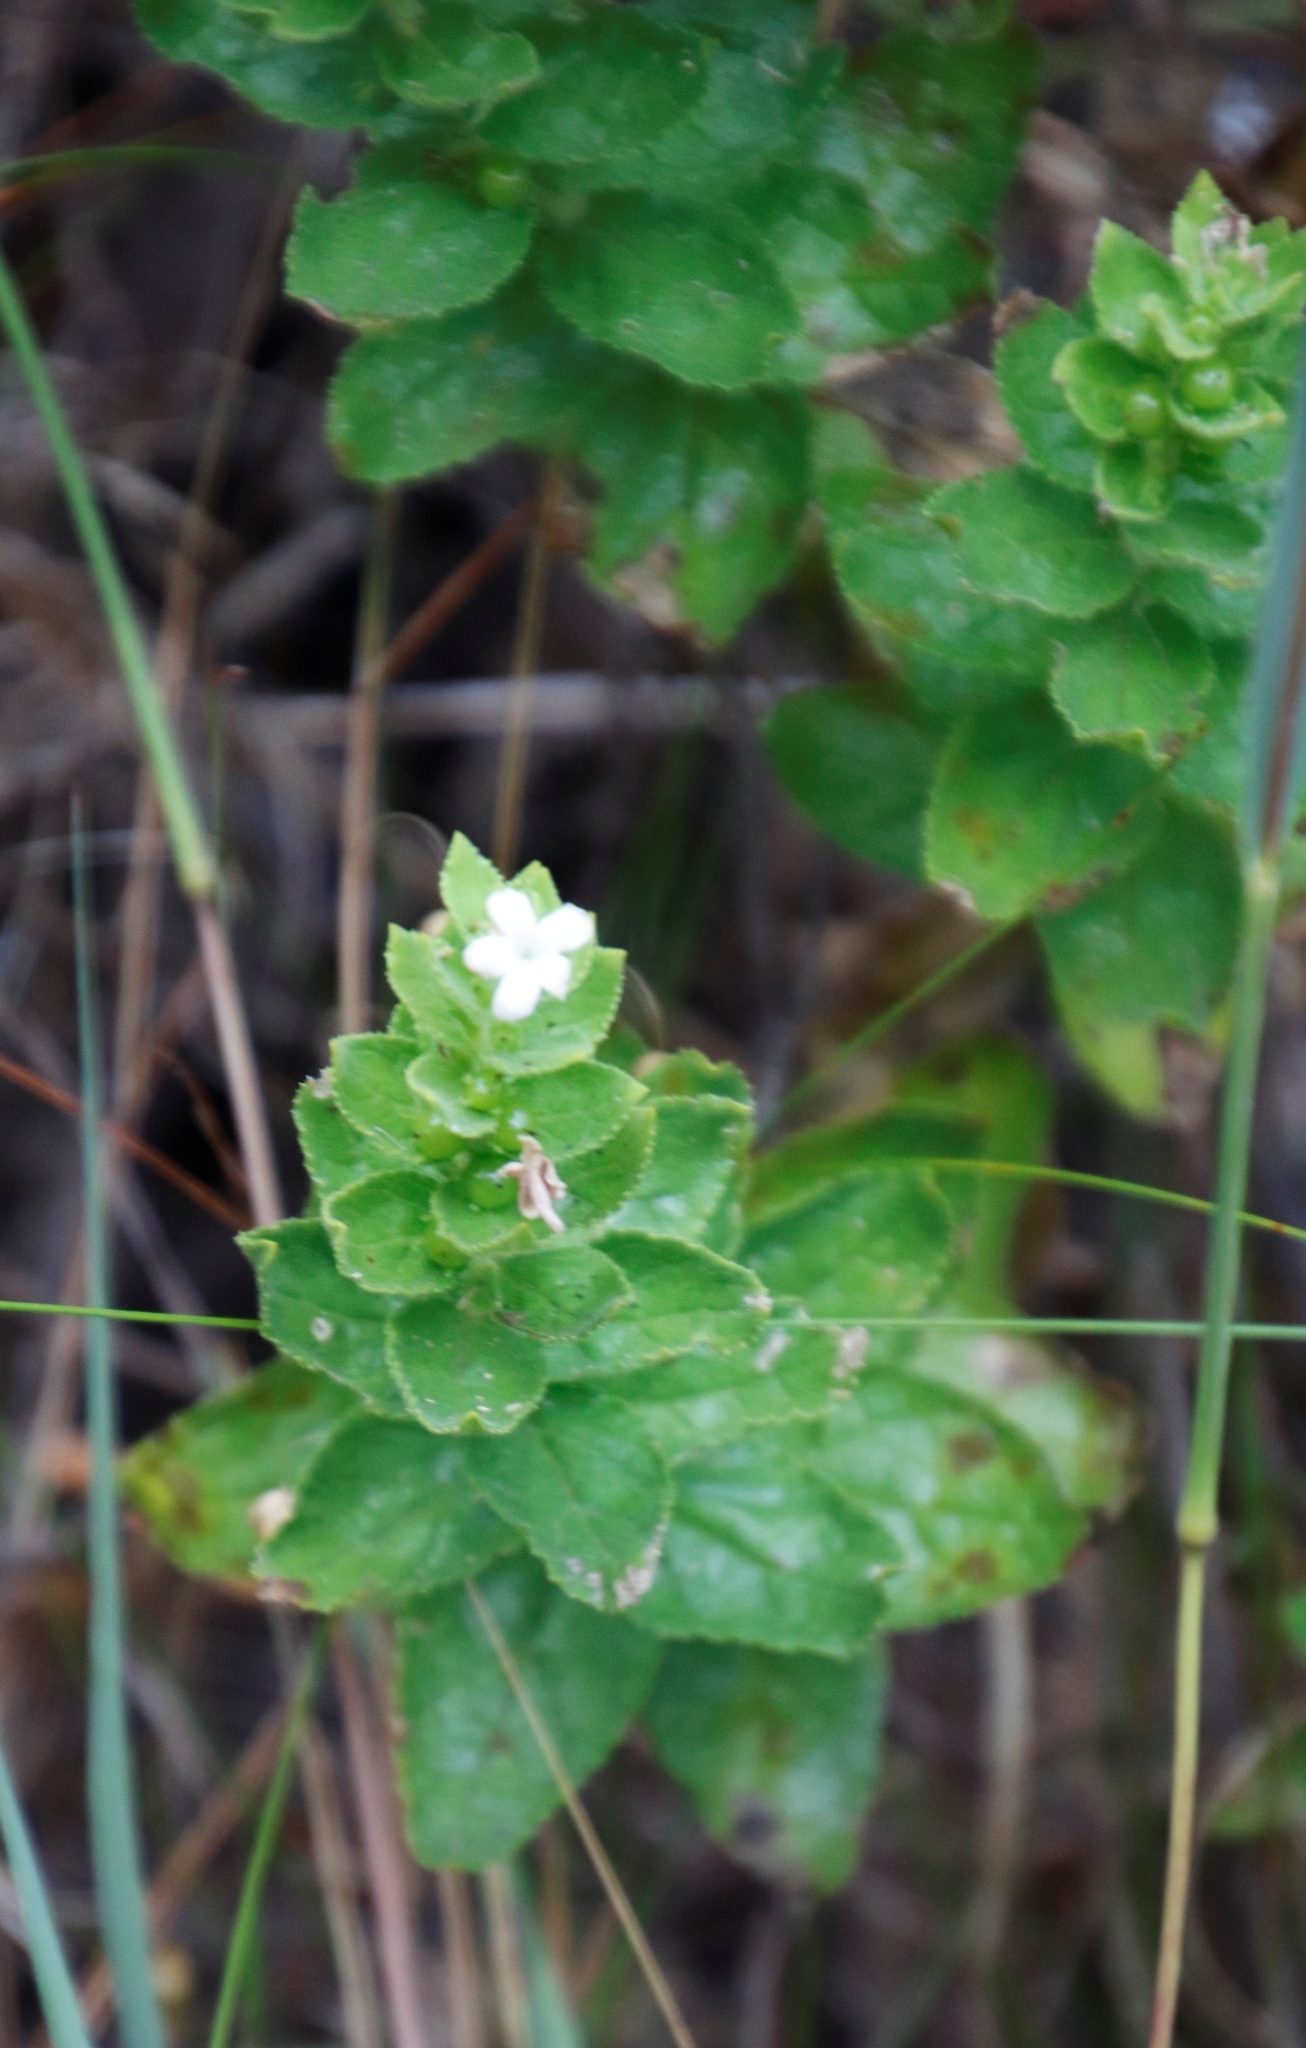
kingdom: Plantae
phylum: Tracheophyta
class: Magnoliopsida
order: Lamiales
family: Scrophulariaceae
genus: Oftia
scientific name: Oftia africana
